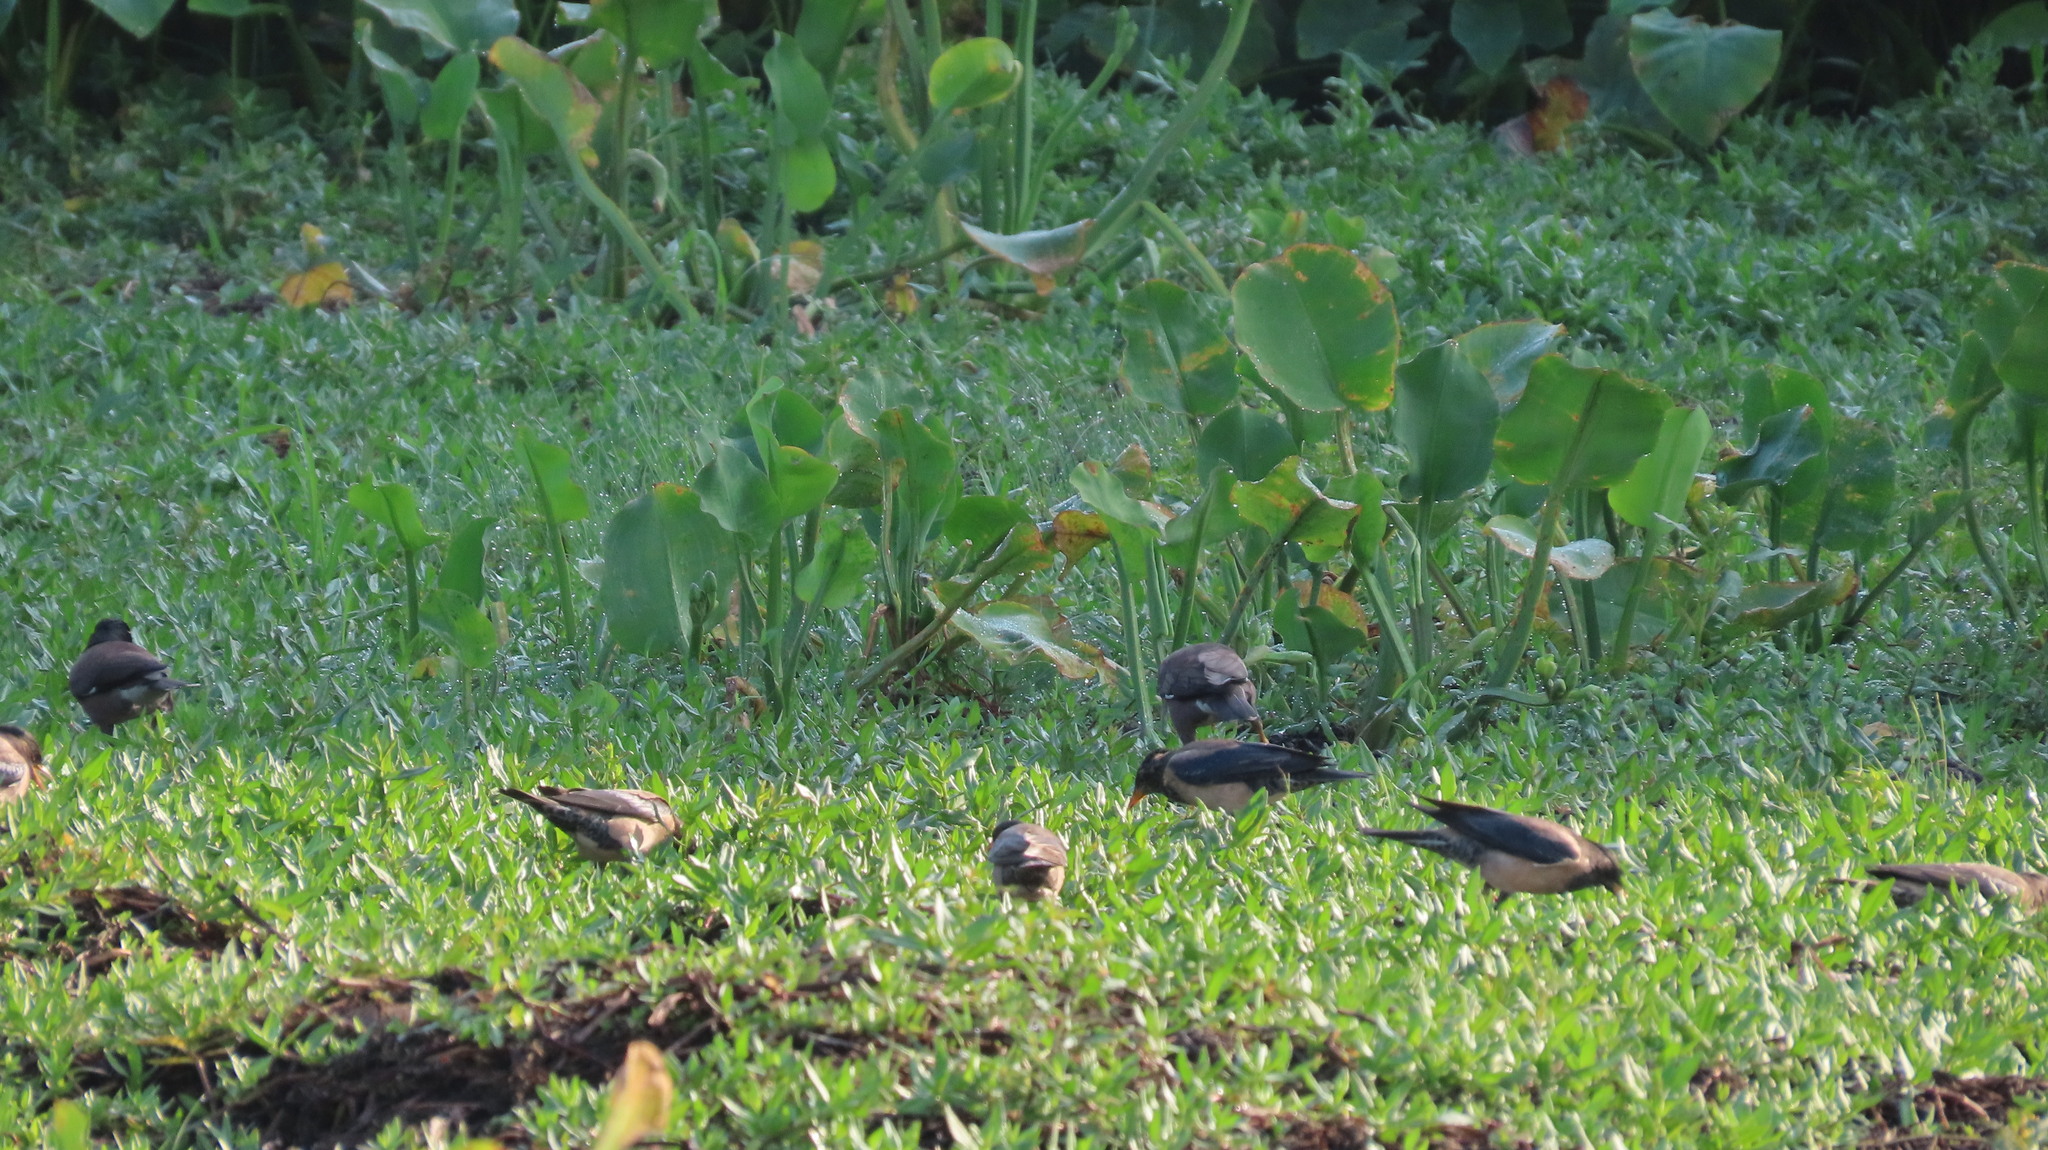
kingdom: Animalia
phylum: Chordata
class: Aves
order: Passeriformes
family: Sturnidae
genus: Pastor
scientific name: Pastor roseus
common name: Rosy starling
